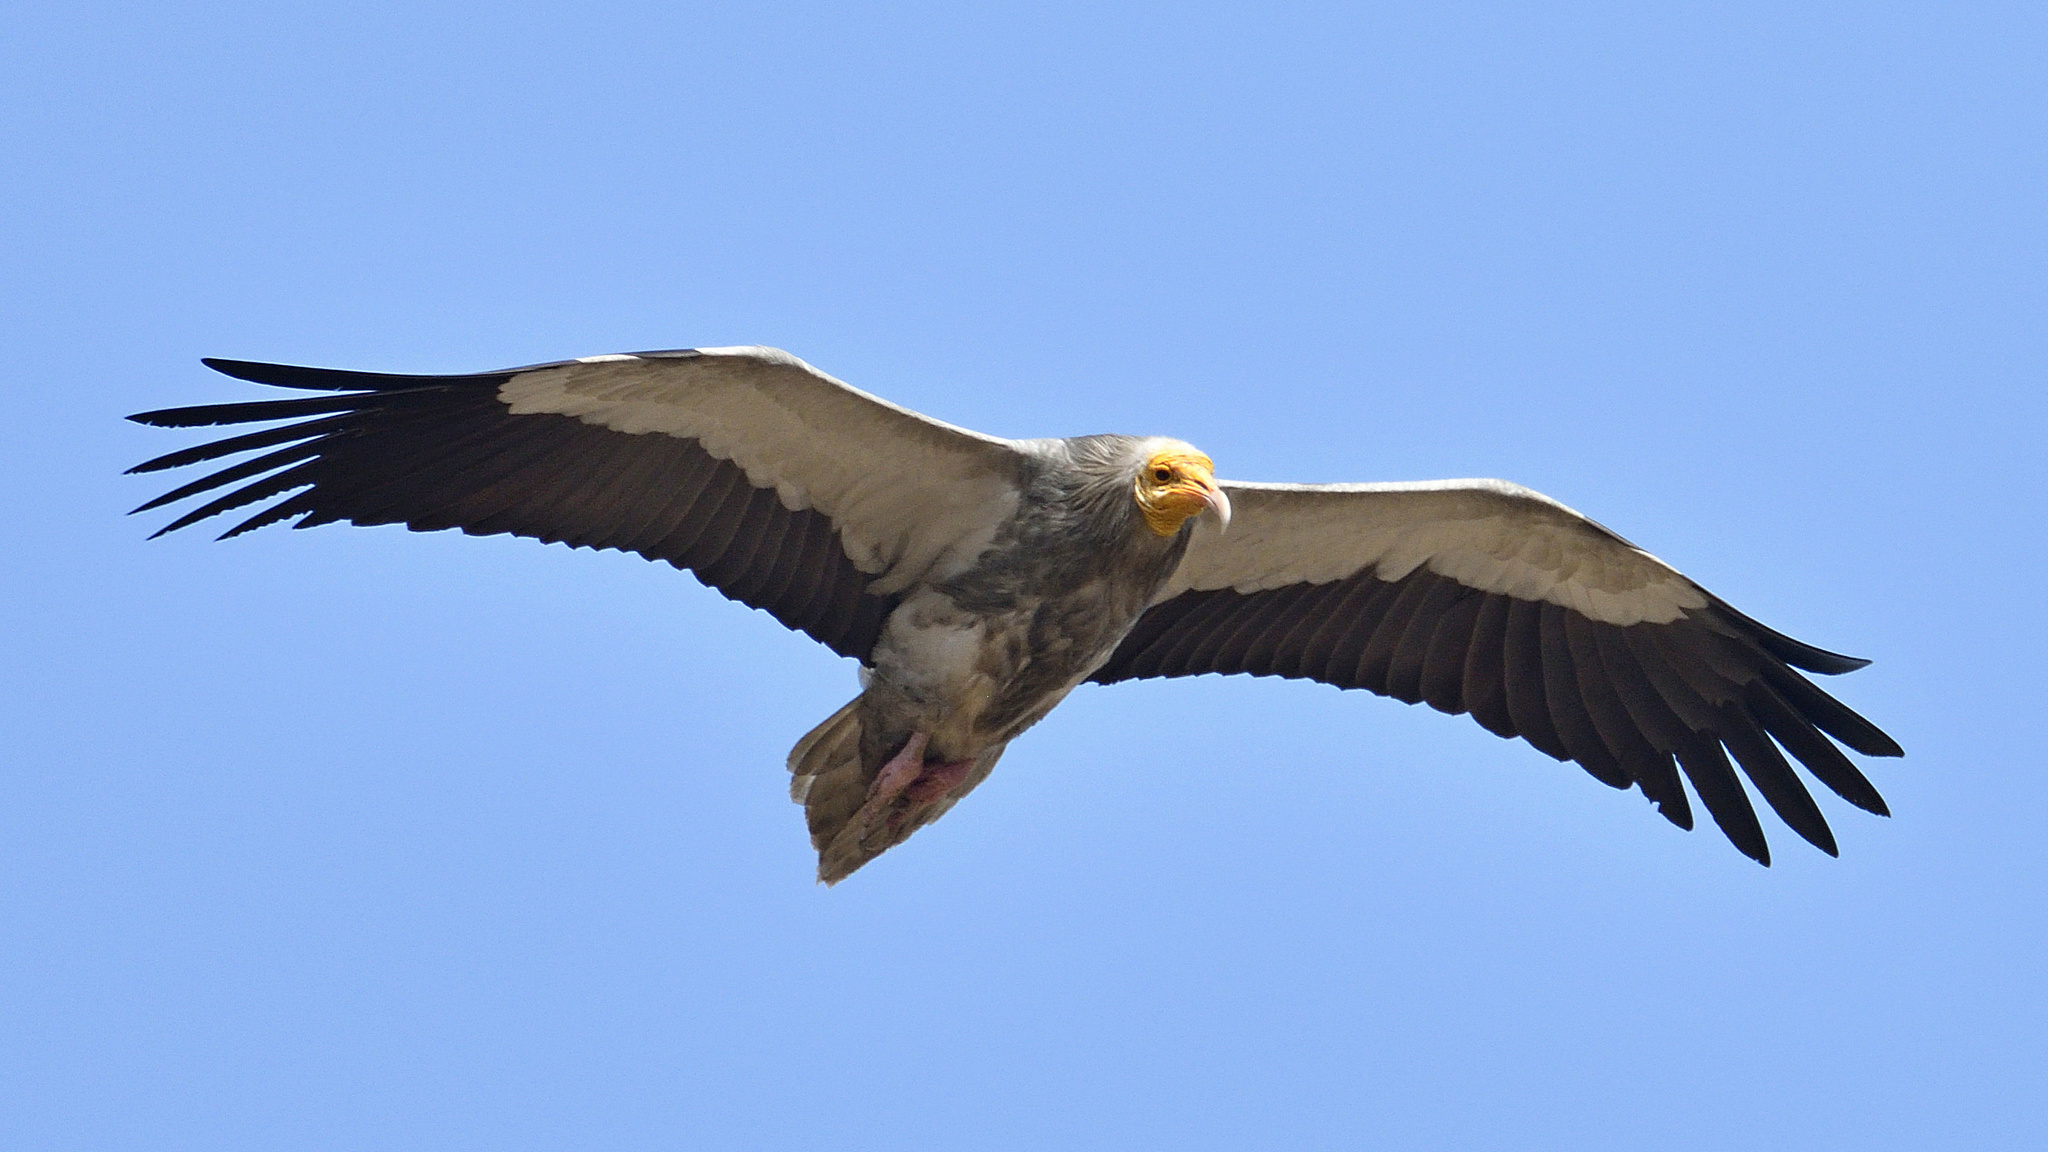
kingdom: Animalia
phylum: Chordata
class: Aves
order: Accipitriformes
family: Accipitridae
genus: Neophron
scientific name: Neophron percnopterus
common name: Egyptian vulture
